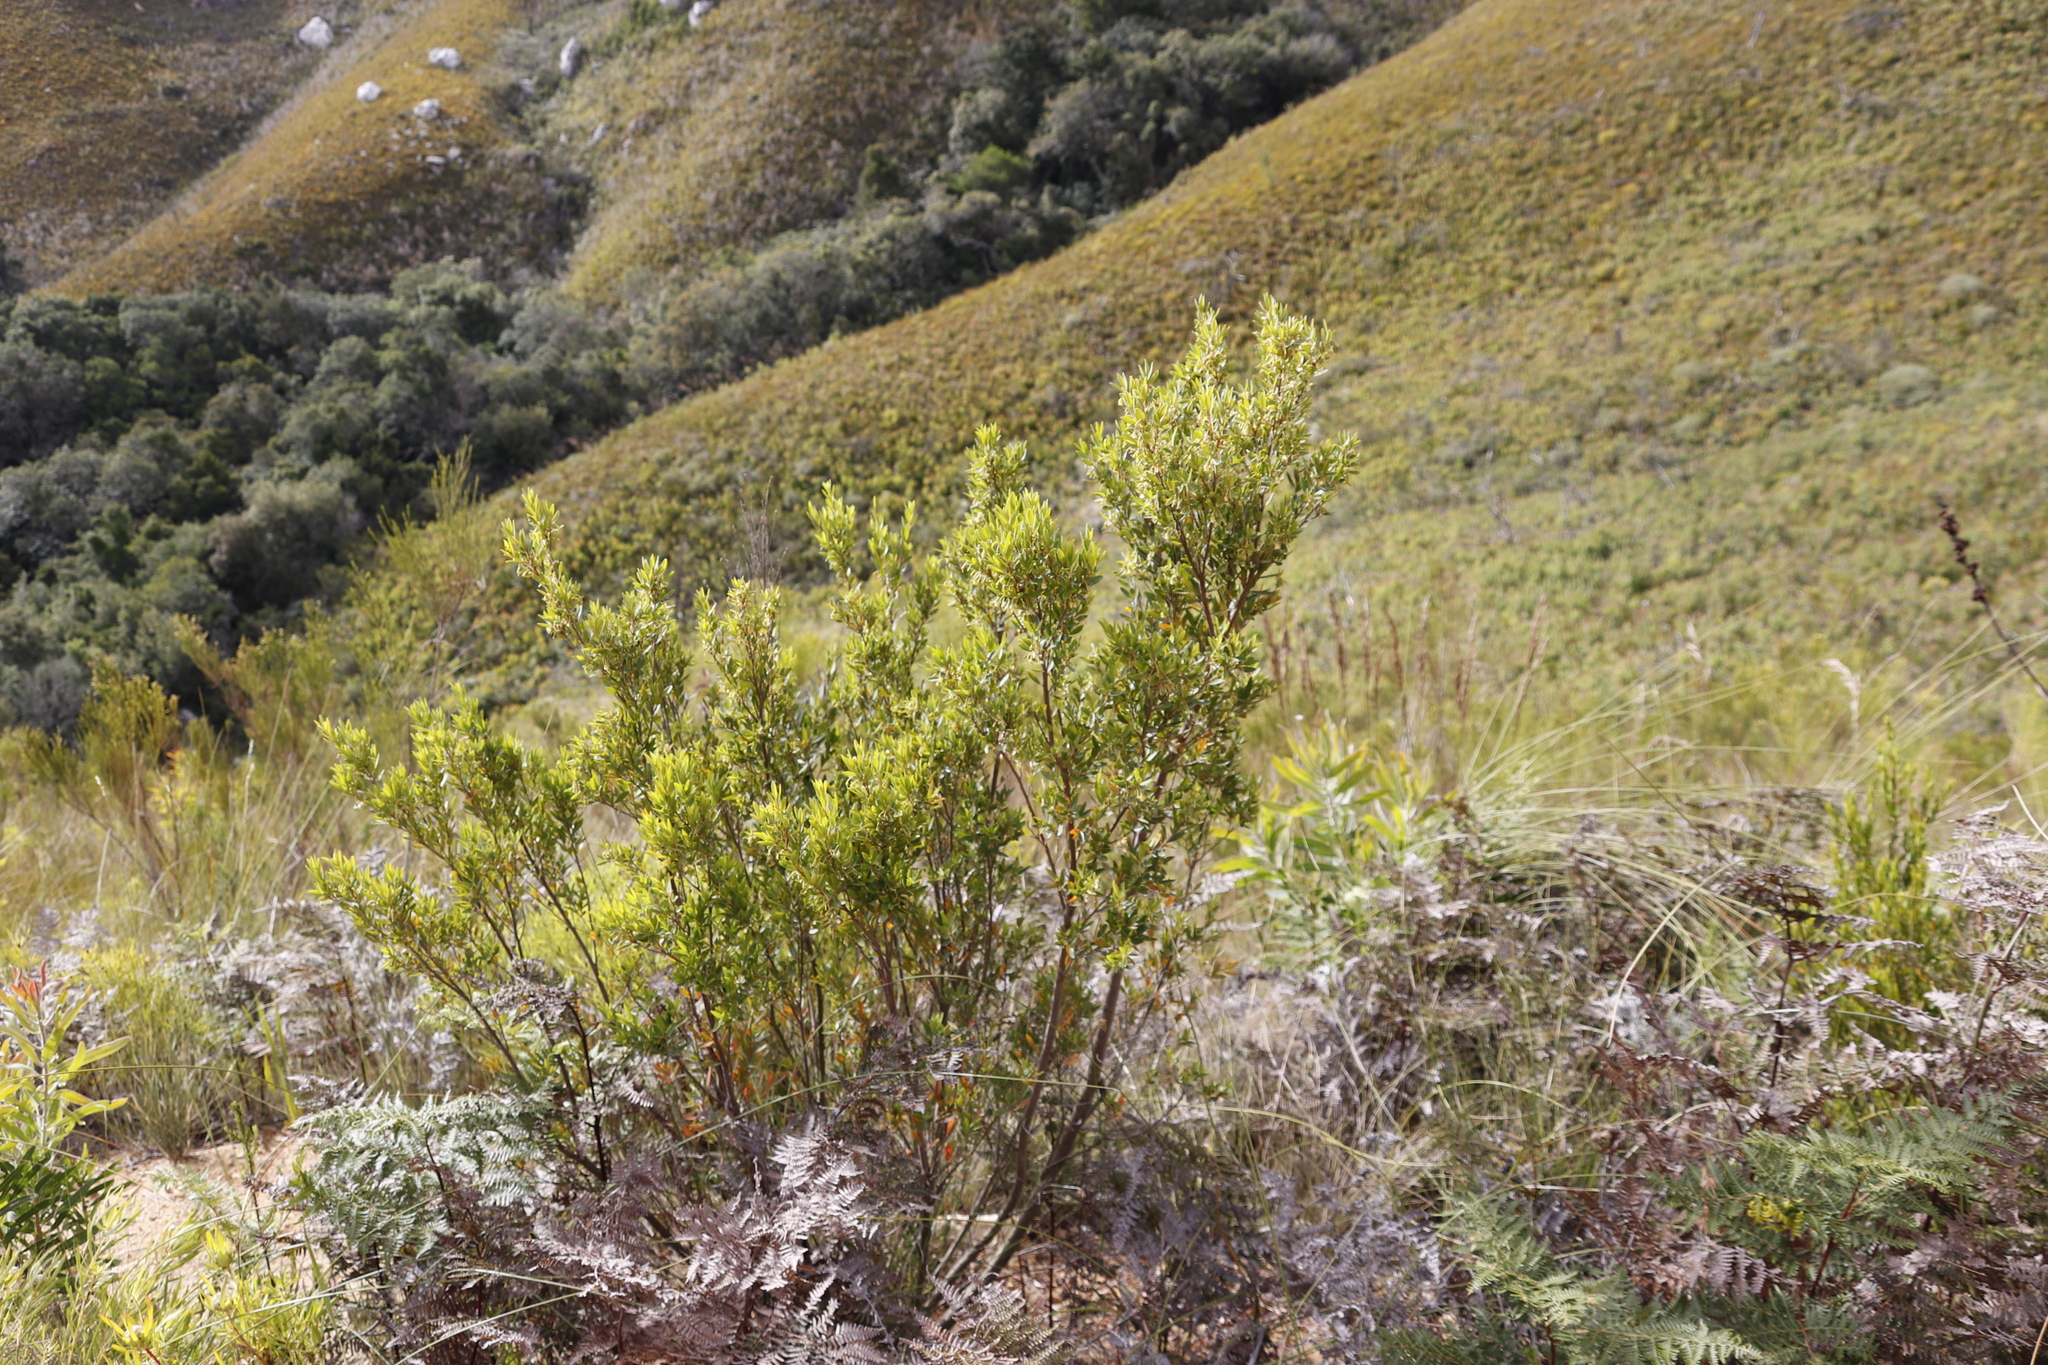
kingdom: Plantae
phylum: Tracheophyta
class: Magnoliopsida
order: Ericales
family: Ebenaceae
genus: Diospyros
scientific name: Diospyros glabra
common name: Fynbos star apple
